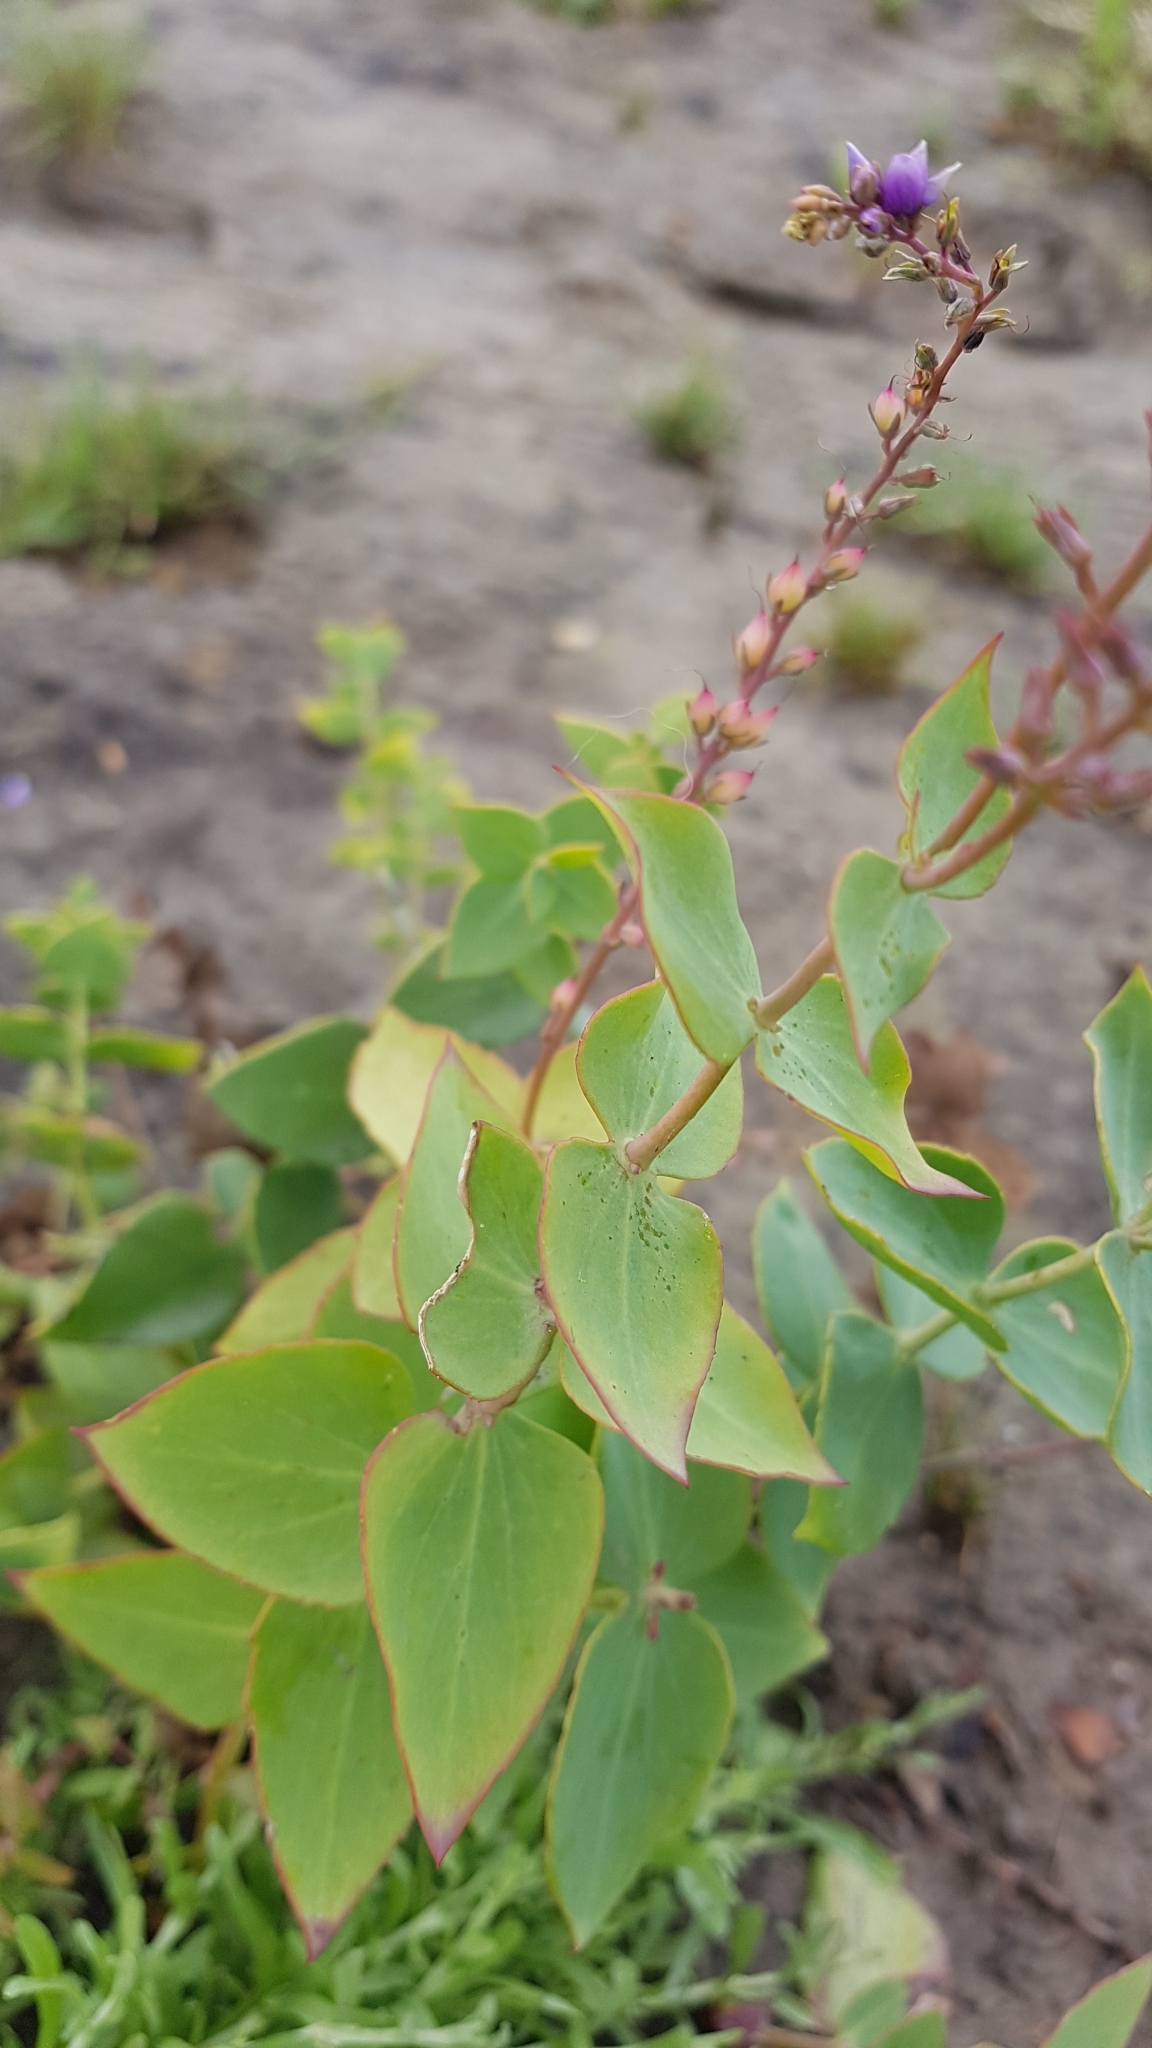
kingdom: Plantae
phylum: Tracheophyta
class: Magnoliopsida
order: Lamiales
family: Plantaginaceae
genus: Veronica
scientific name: Veronica perfoliata
